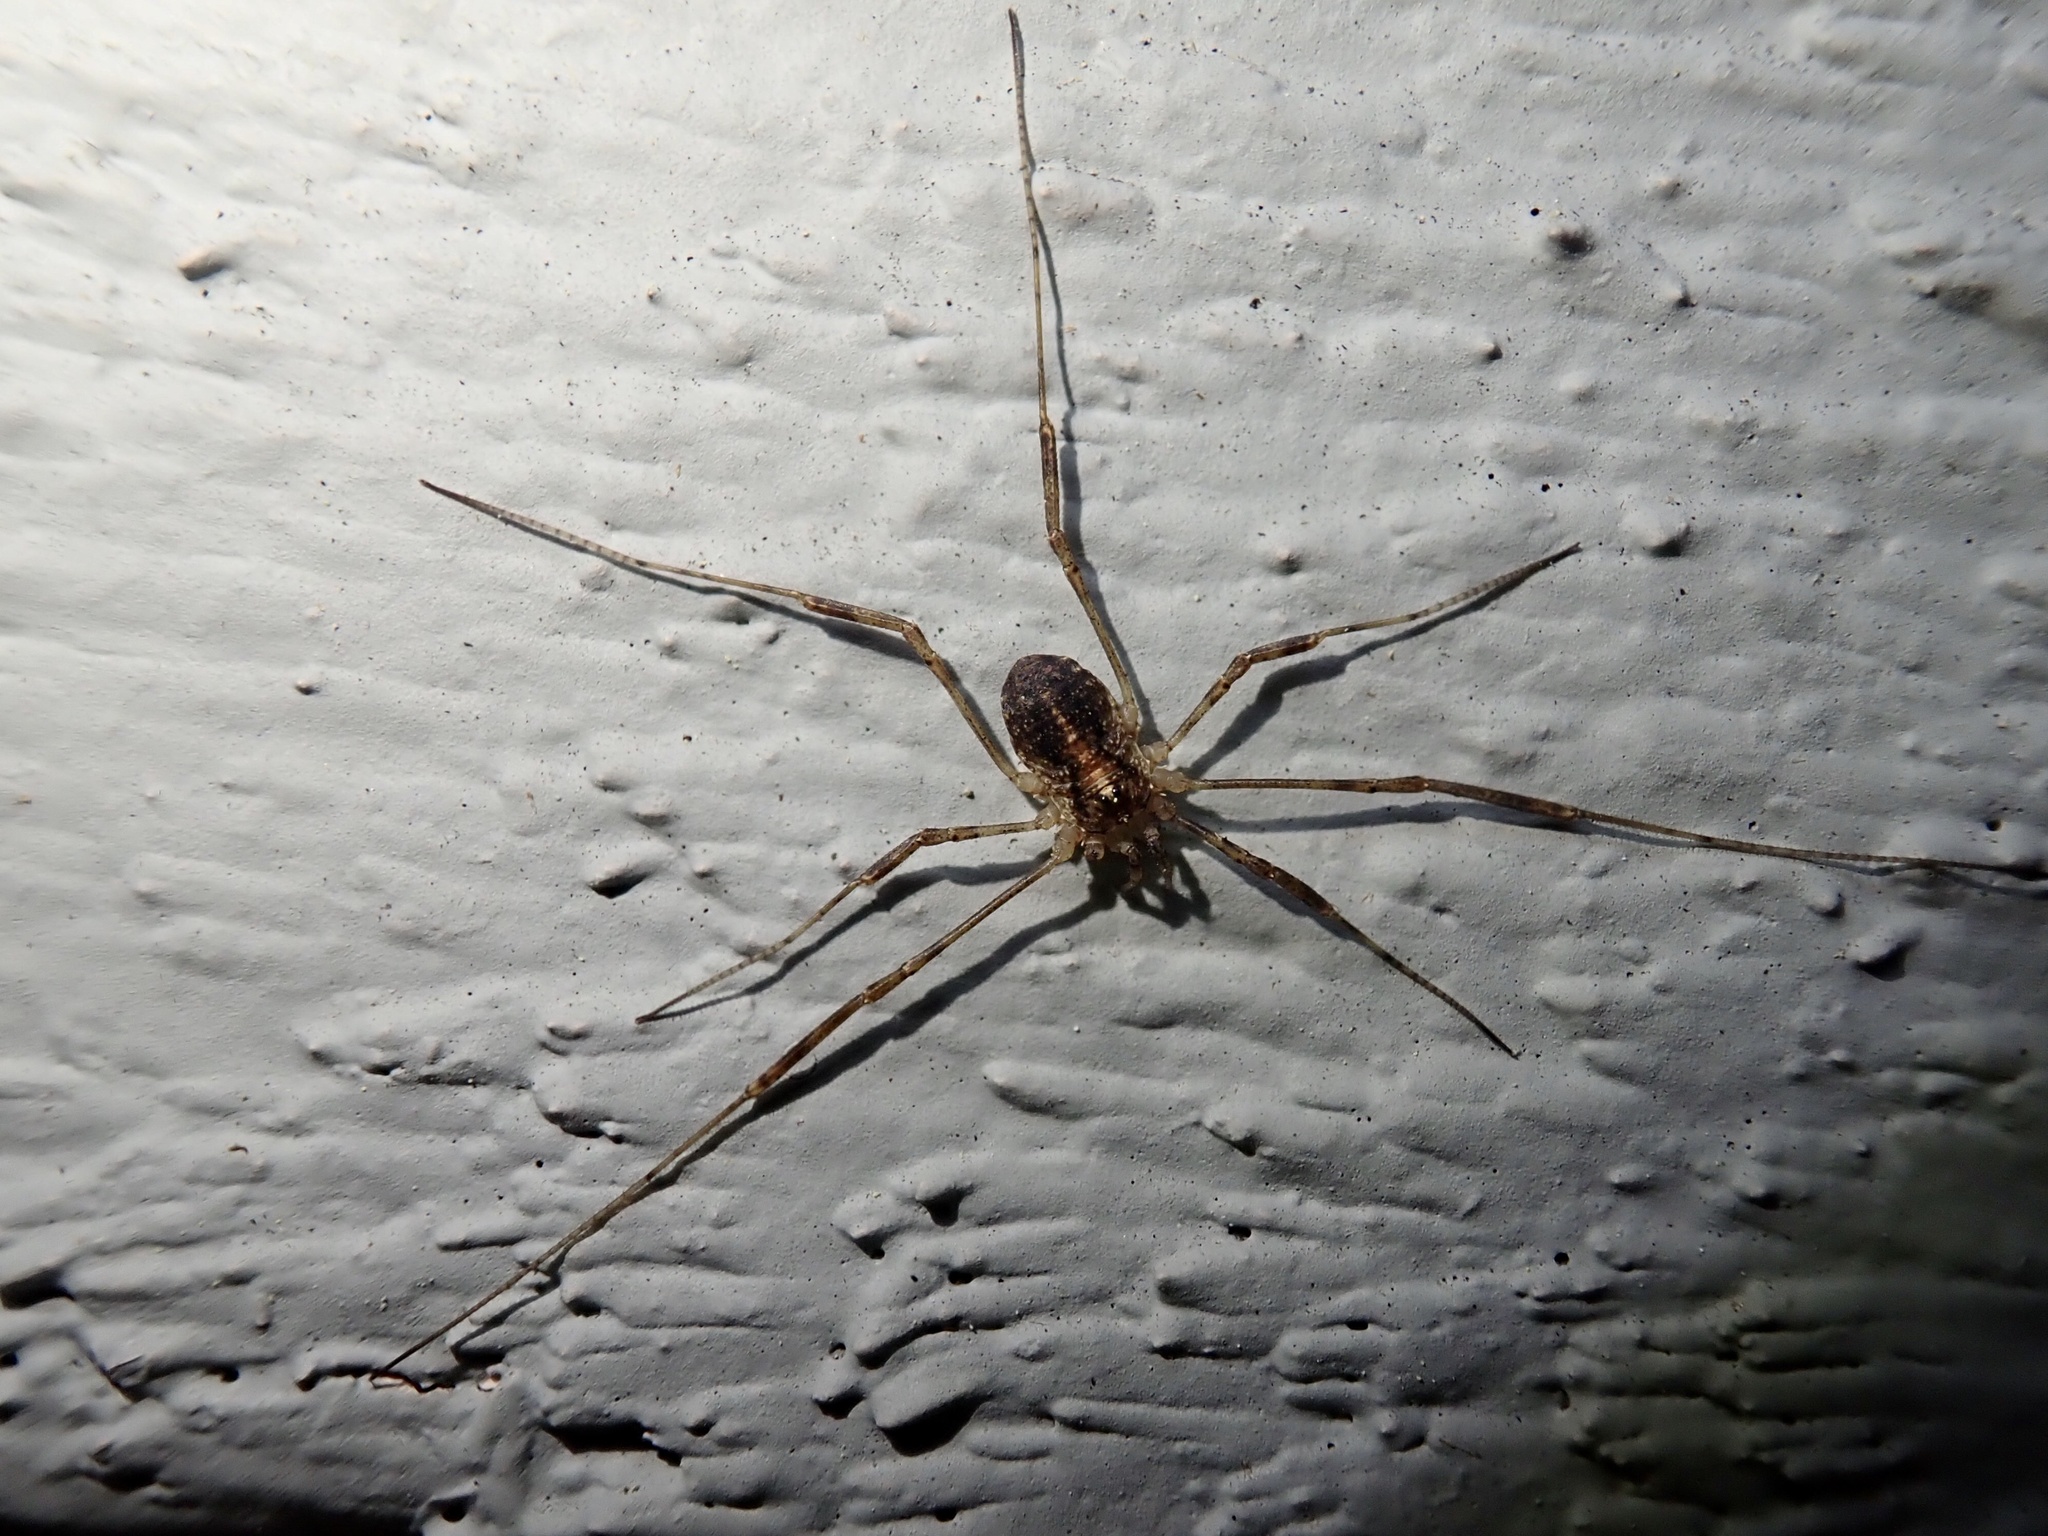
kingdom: Animalia
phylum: Arthropoda
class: Arachnida
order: Opiliones
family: Phalangiidae
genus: Paroligolophus
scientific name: Paroligolophus agrestis
